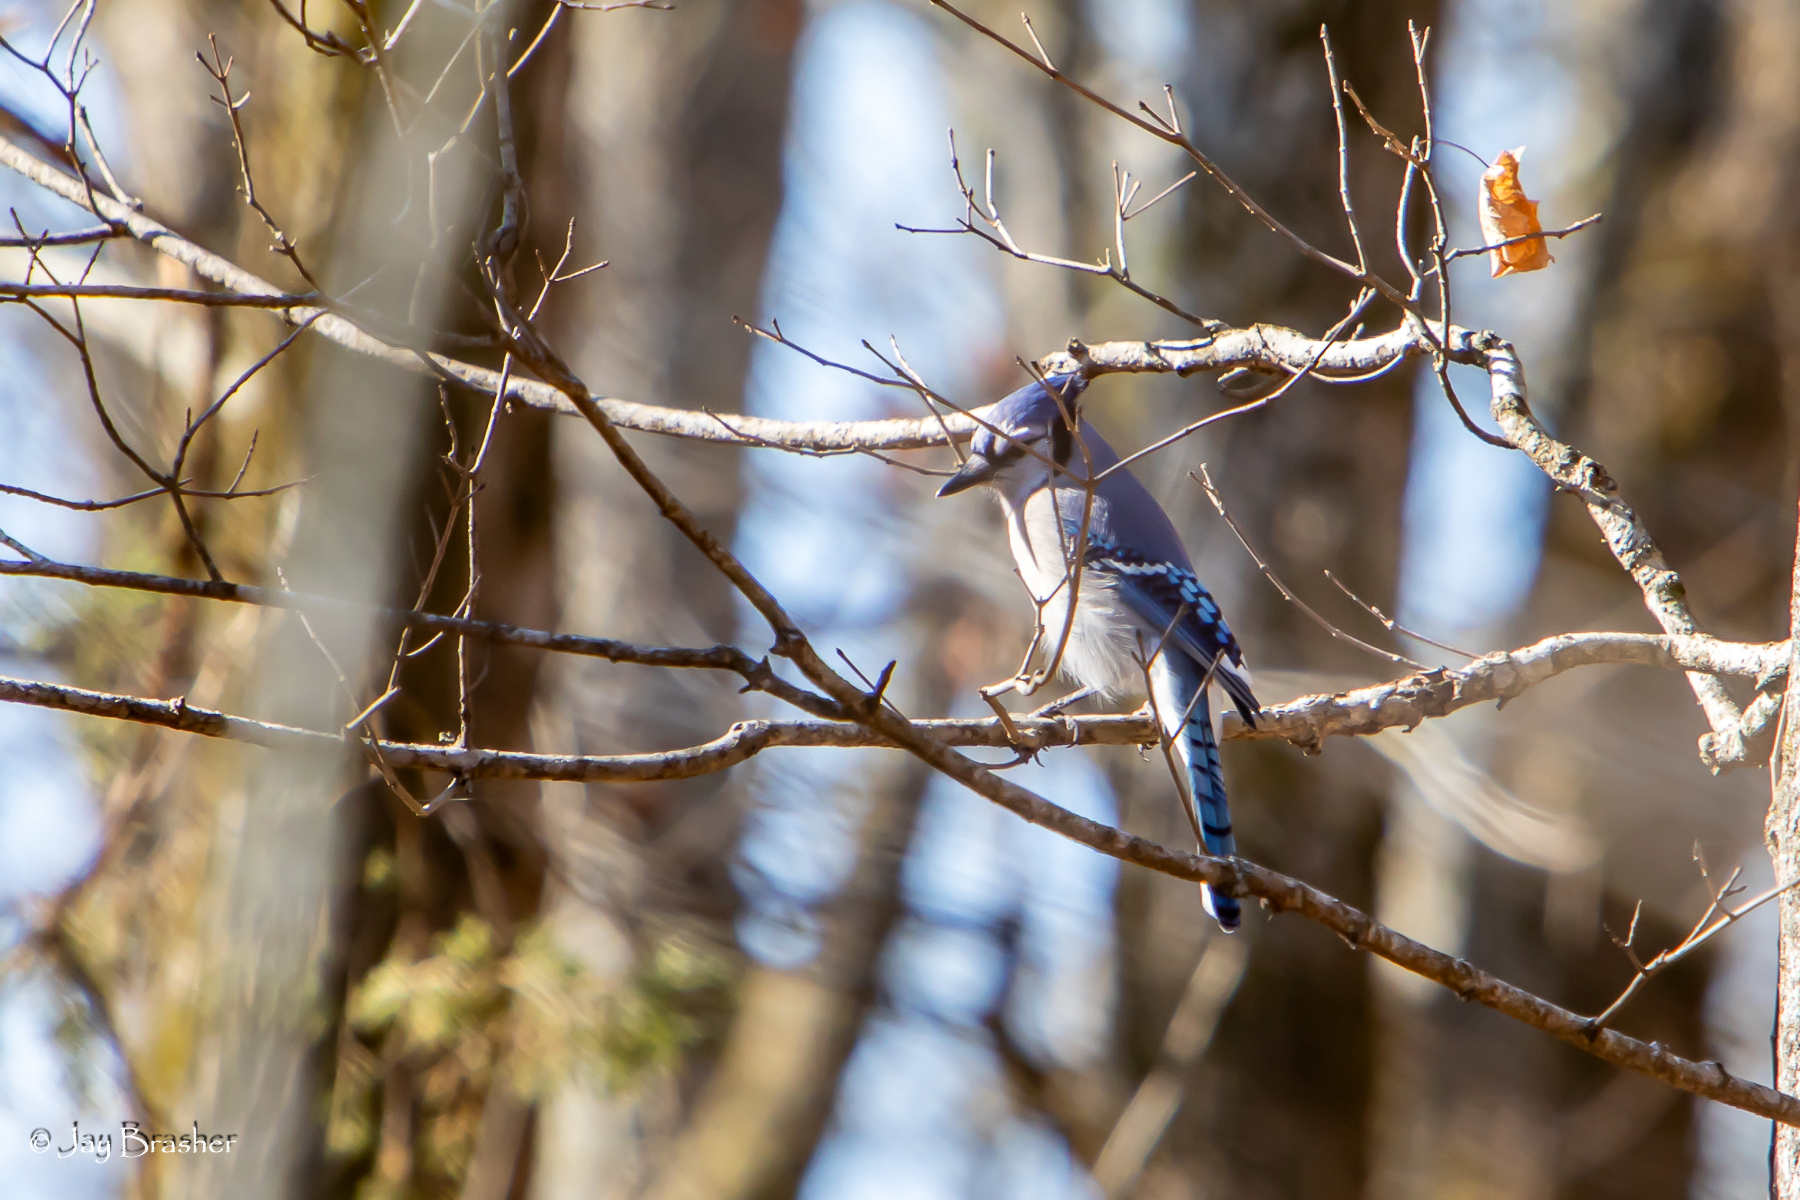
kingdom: Animalia
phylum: Chordata
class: Aves
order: Passeriformes
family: Corvidae
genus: Cyanocitta
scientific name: Cyanocitta cristata
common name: Blue jay
